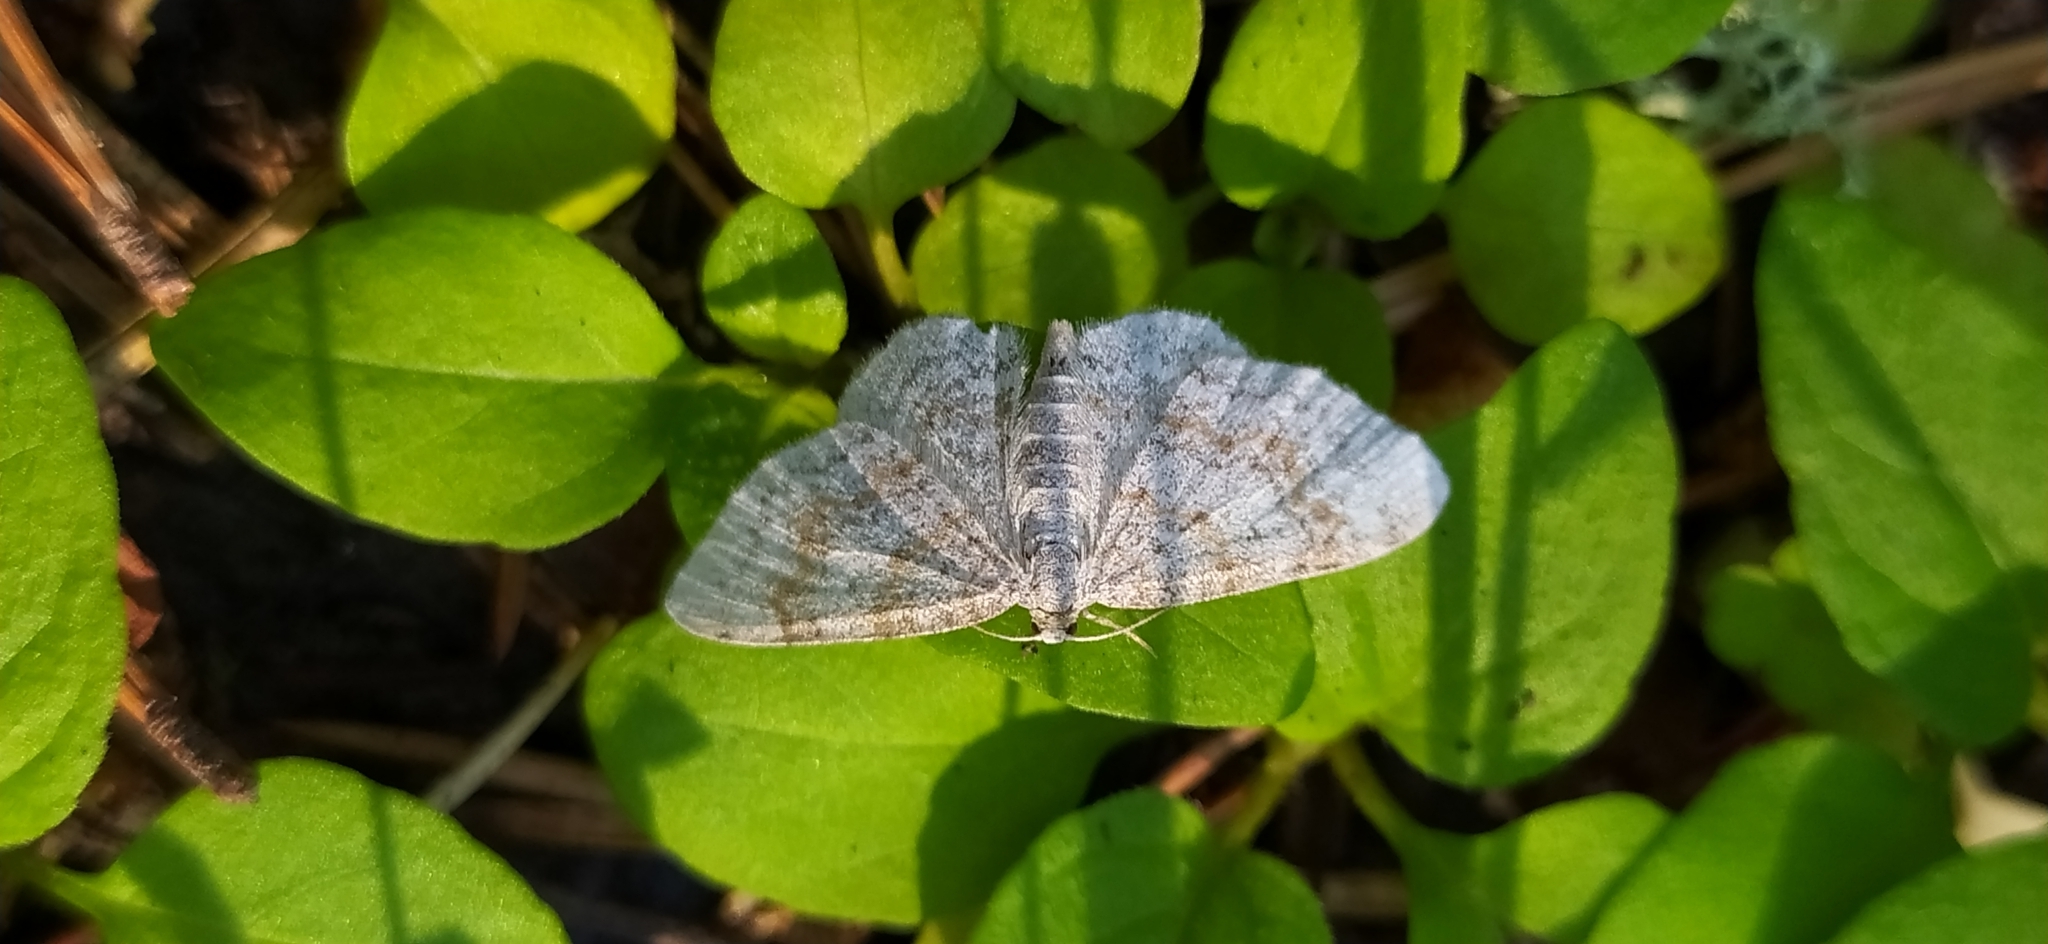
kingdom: Animalia
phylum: Arthropoda
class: Insecta
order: Lepidoptera
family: Geometridae
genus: Hydrelia
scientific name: Hydrelia sylvata
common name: Waved carpet
